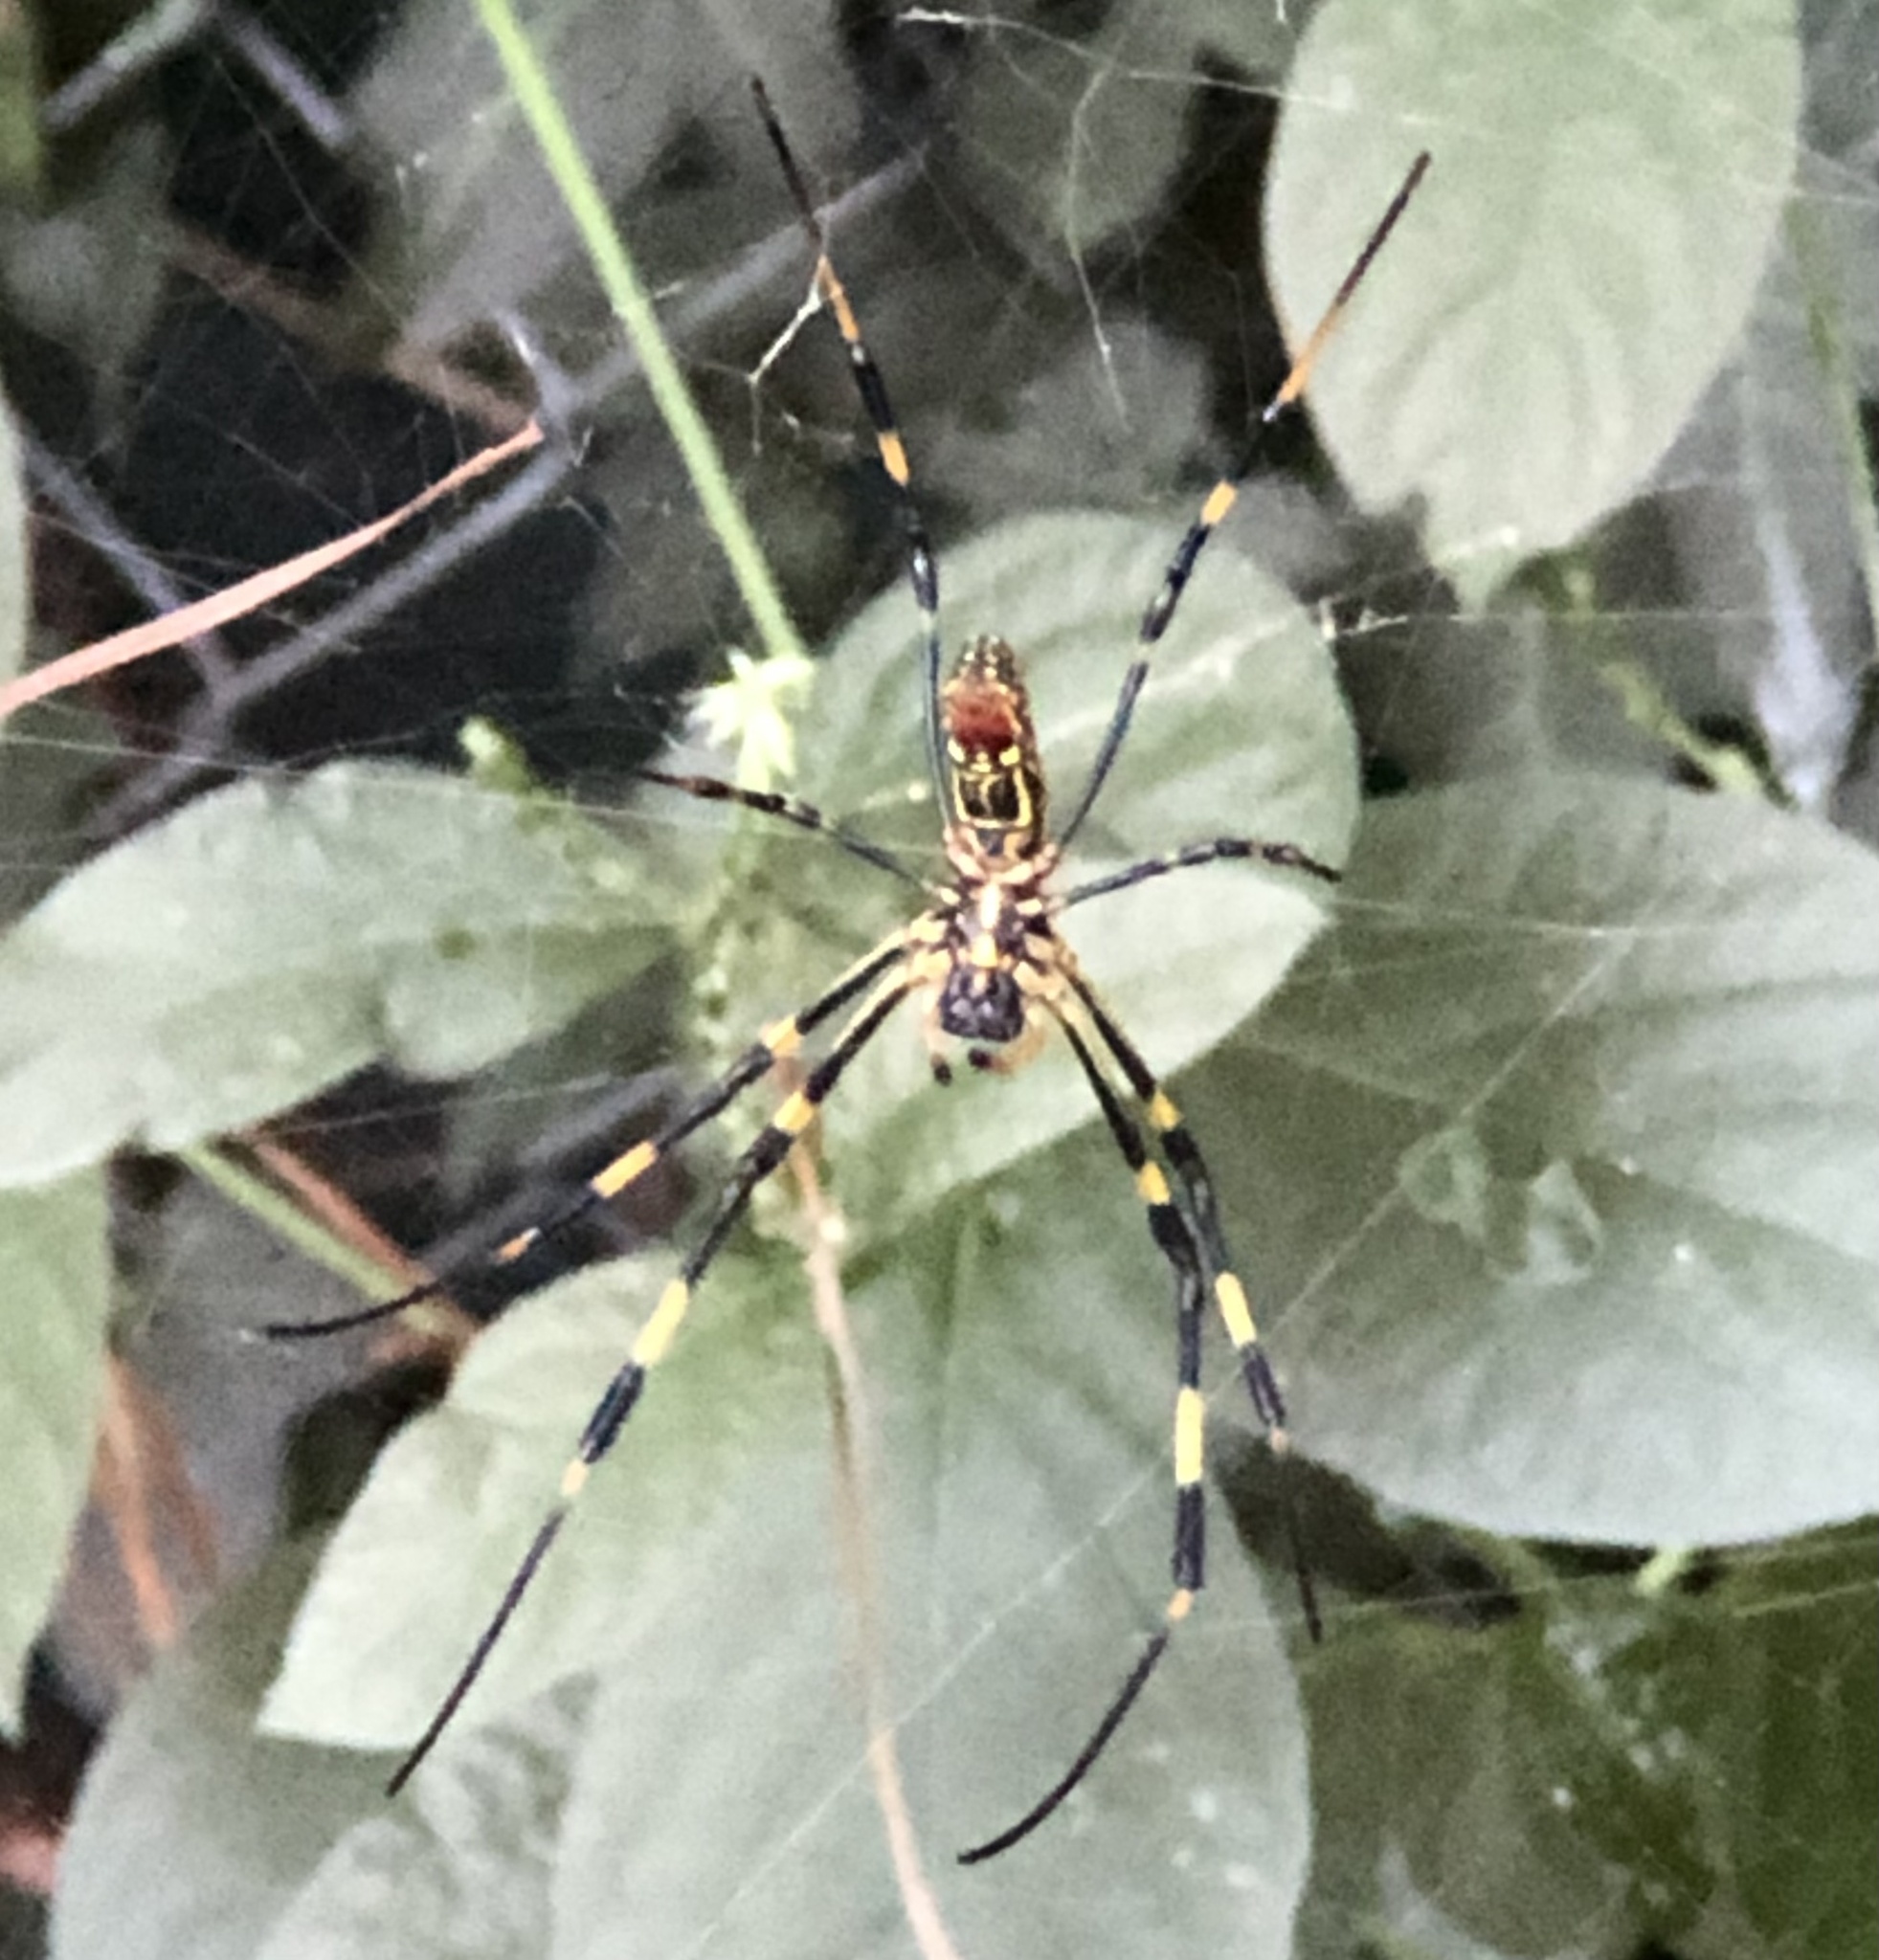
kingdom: Animalia
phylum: Arthropoda
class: Arachnida
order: Araneae
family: Araneidae
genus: Trichonephila
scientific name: Trichonephila clavata
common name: Jorō spider
